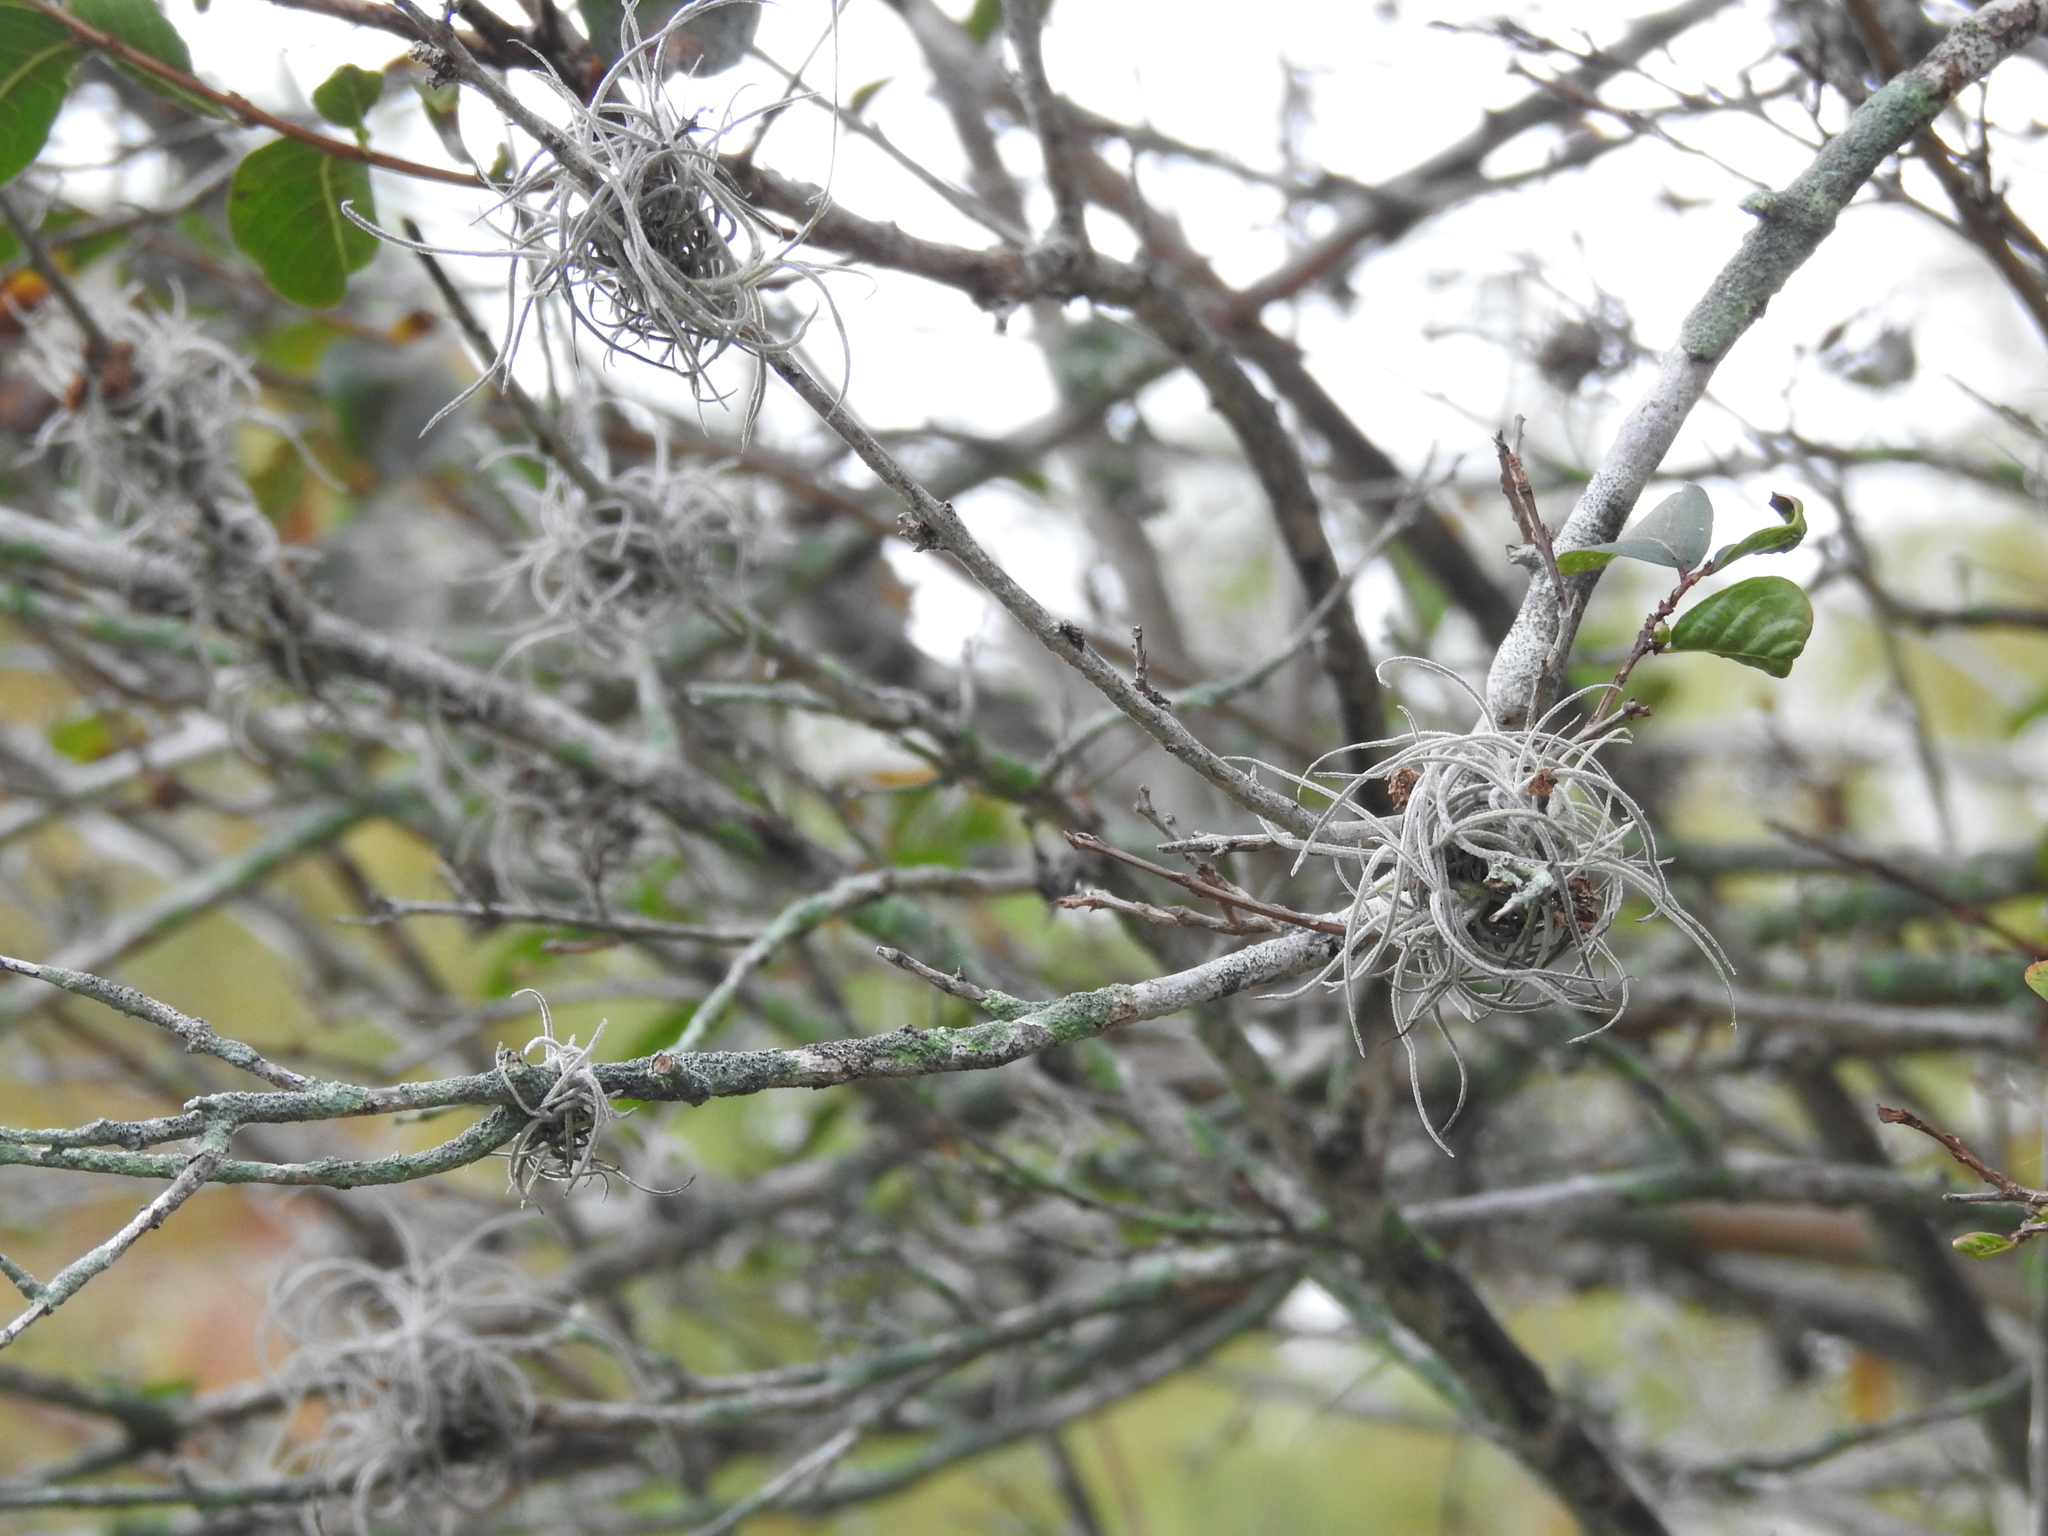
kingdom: Plantae
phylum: Tracheophyta
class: Liliopsida
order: Poales
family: Bromeliaceae
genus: Tillandsia
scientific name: Tillandsia recurvata
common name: Small ballmoss
